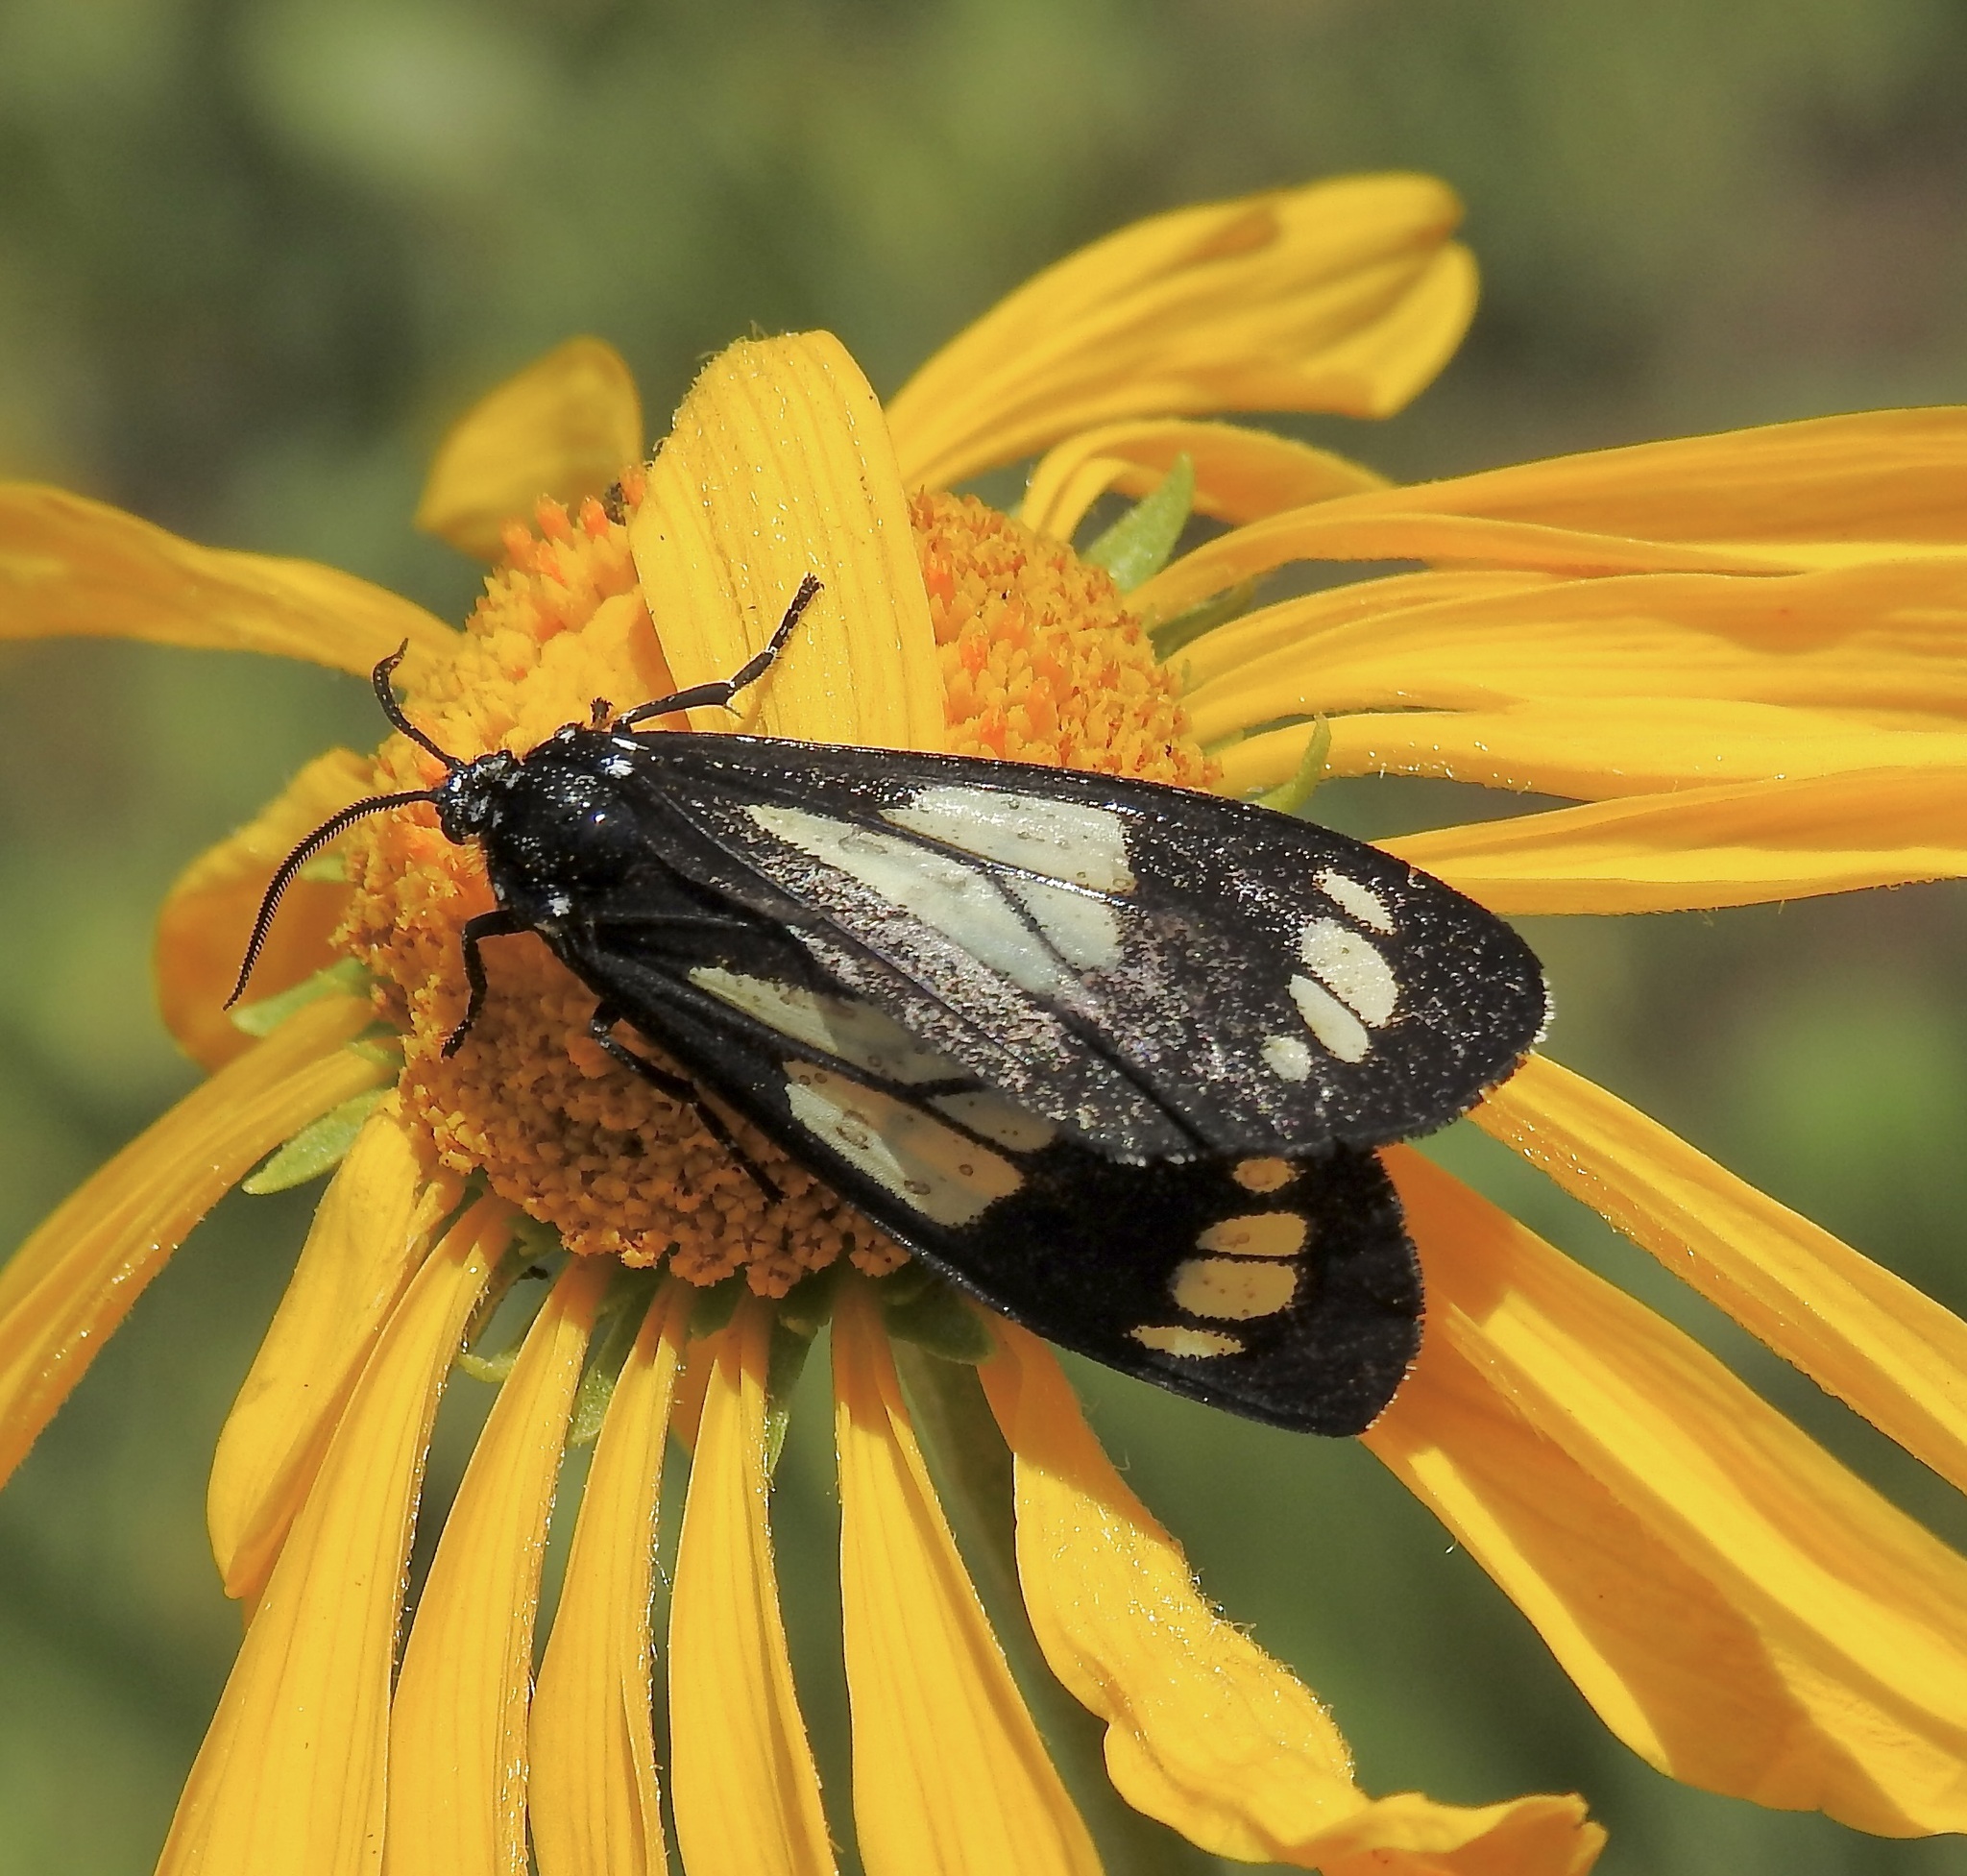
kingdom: Animalia
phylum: Arthropoda
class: Insecta
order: Lepidoptera
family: Erebidae
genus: Gnophaela
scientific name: Gnophaela discreta
